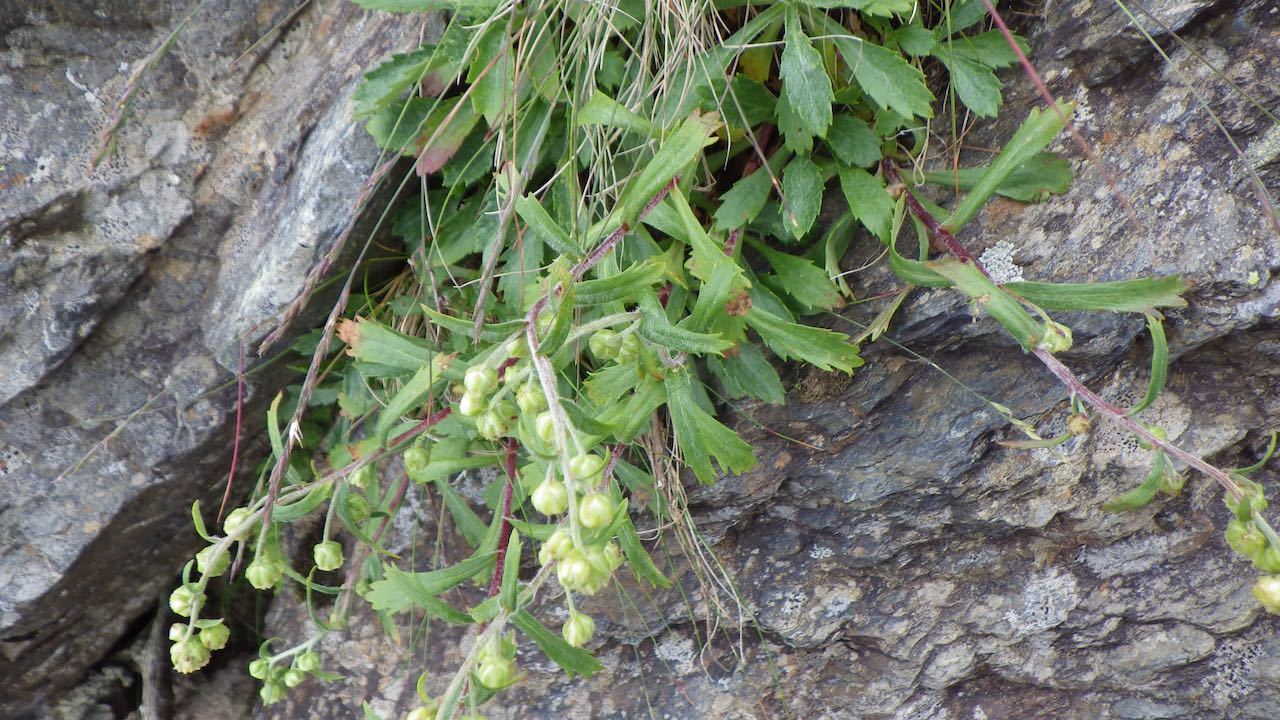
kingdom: Plantae
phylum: Tracheophyta
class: Magnoliopsida
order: Asterales
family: Asteraceae
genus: Artemisia
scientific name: Artemisia pedunculosa
